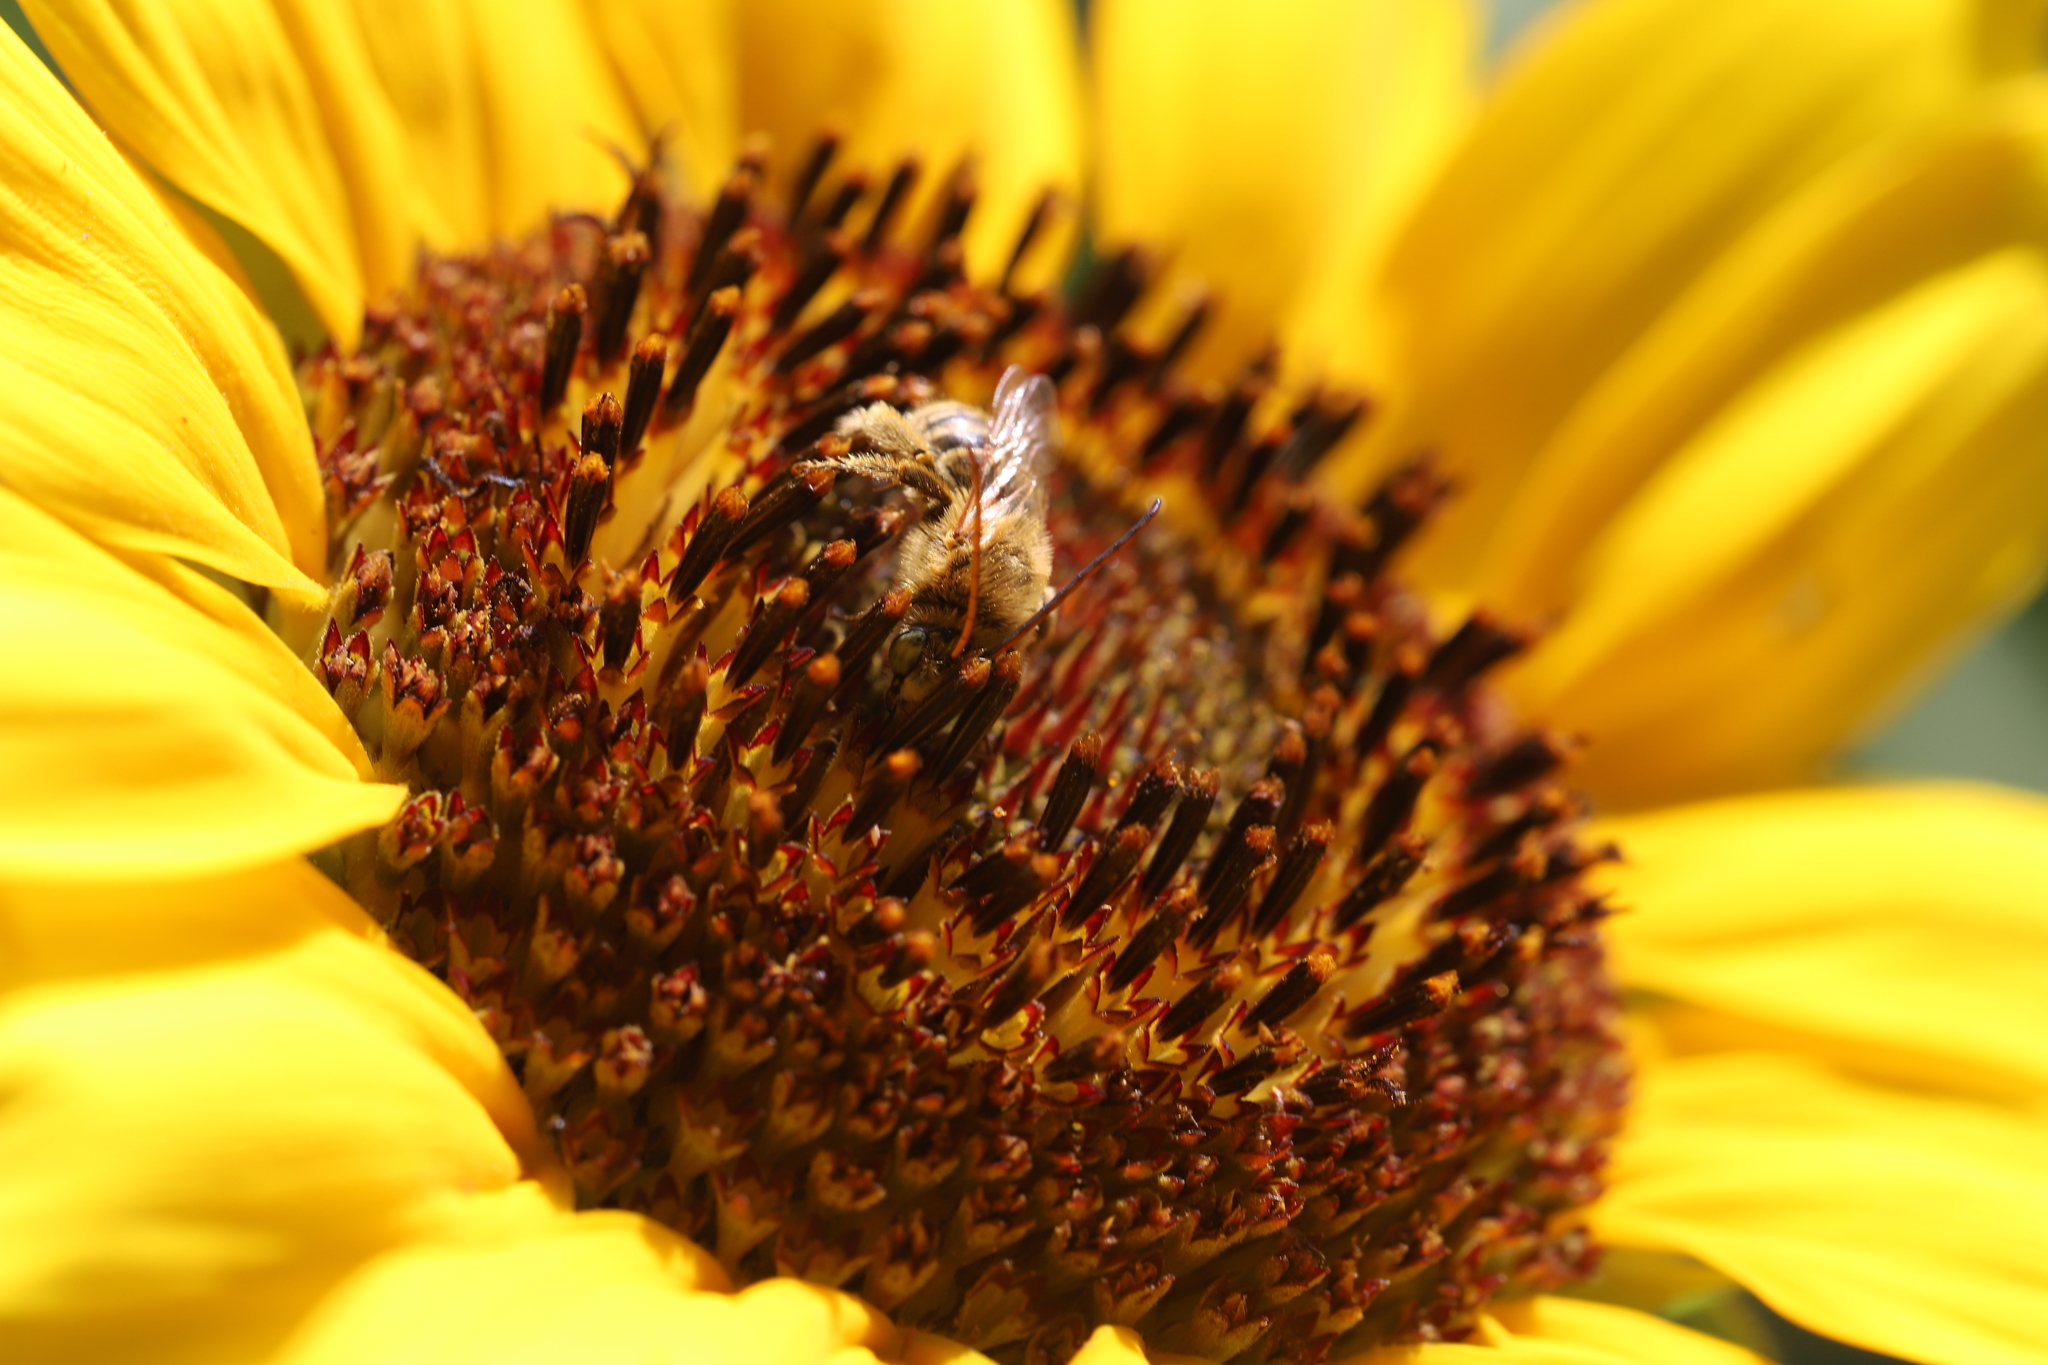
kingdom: Animalia
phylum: Arthropoda
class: Insecta
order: Hymenoptera
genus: Eumelissodes
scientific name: Eumelissodes
